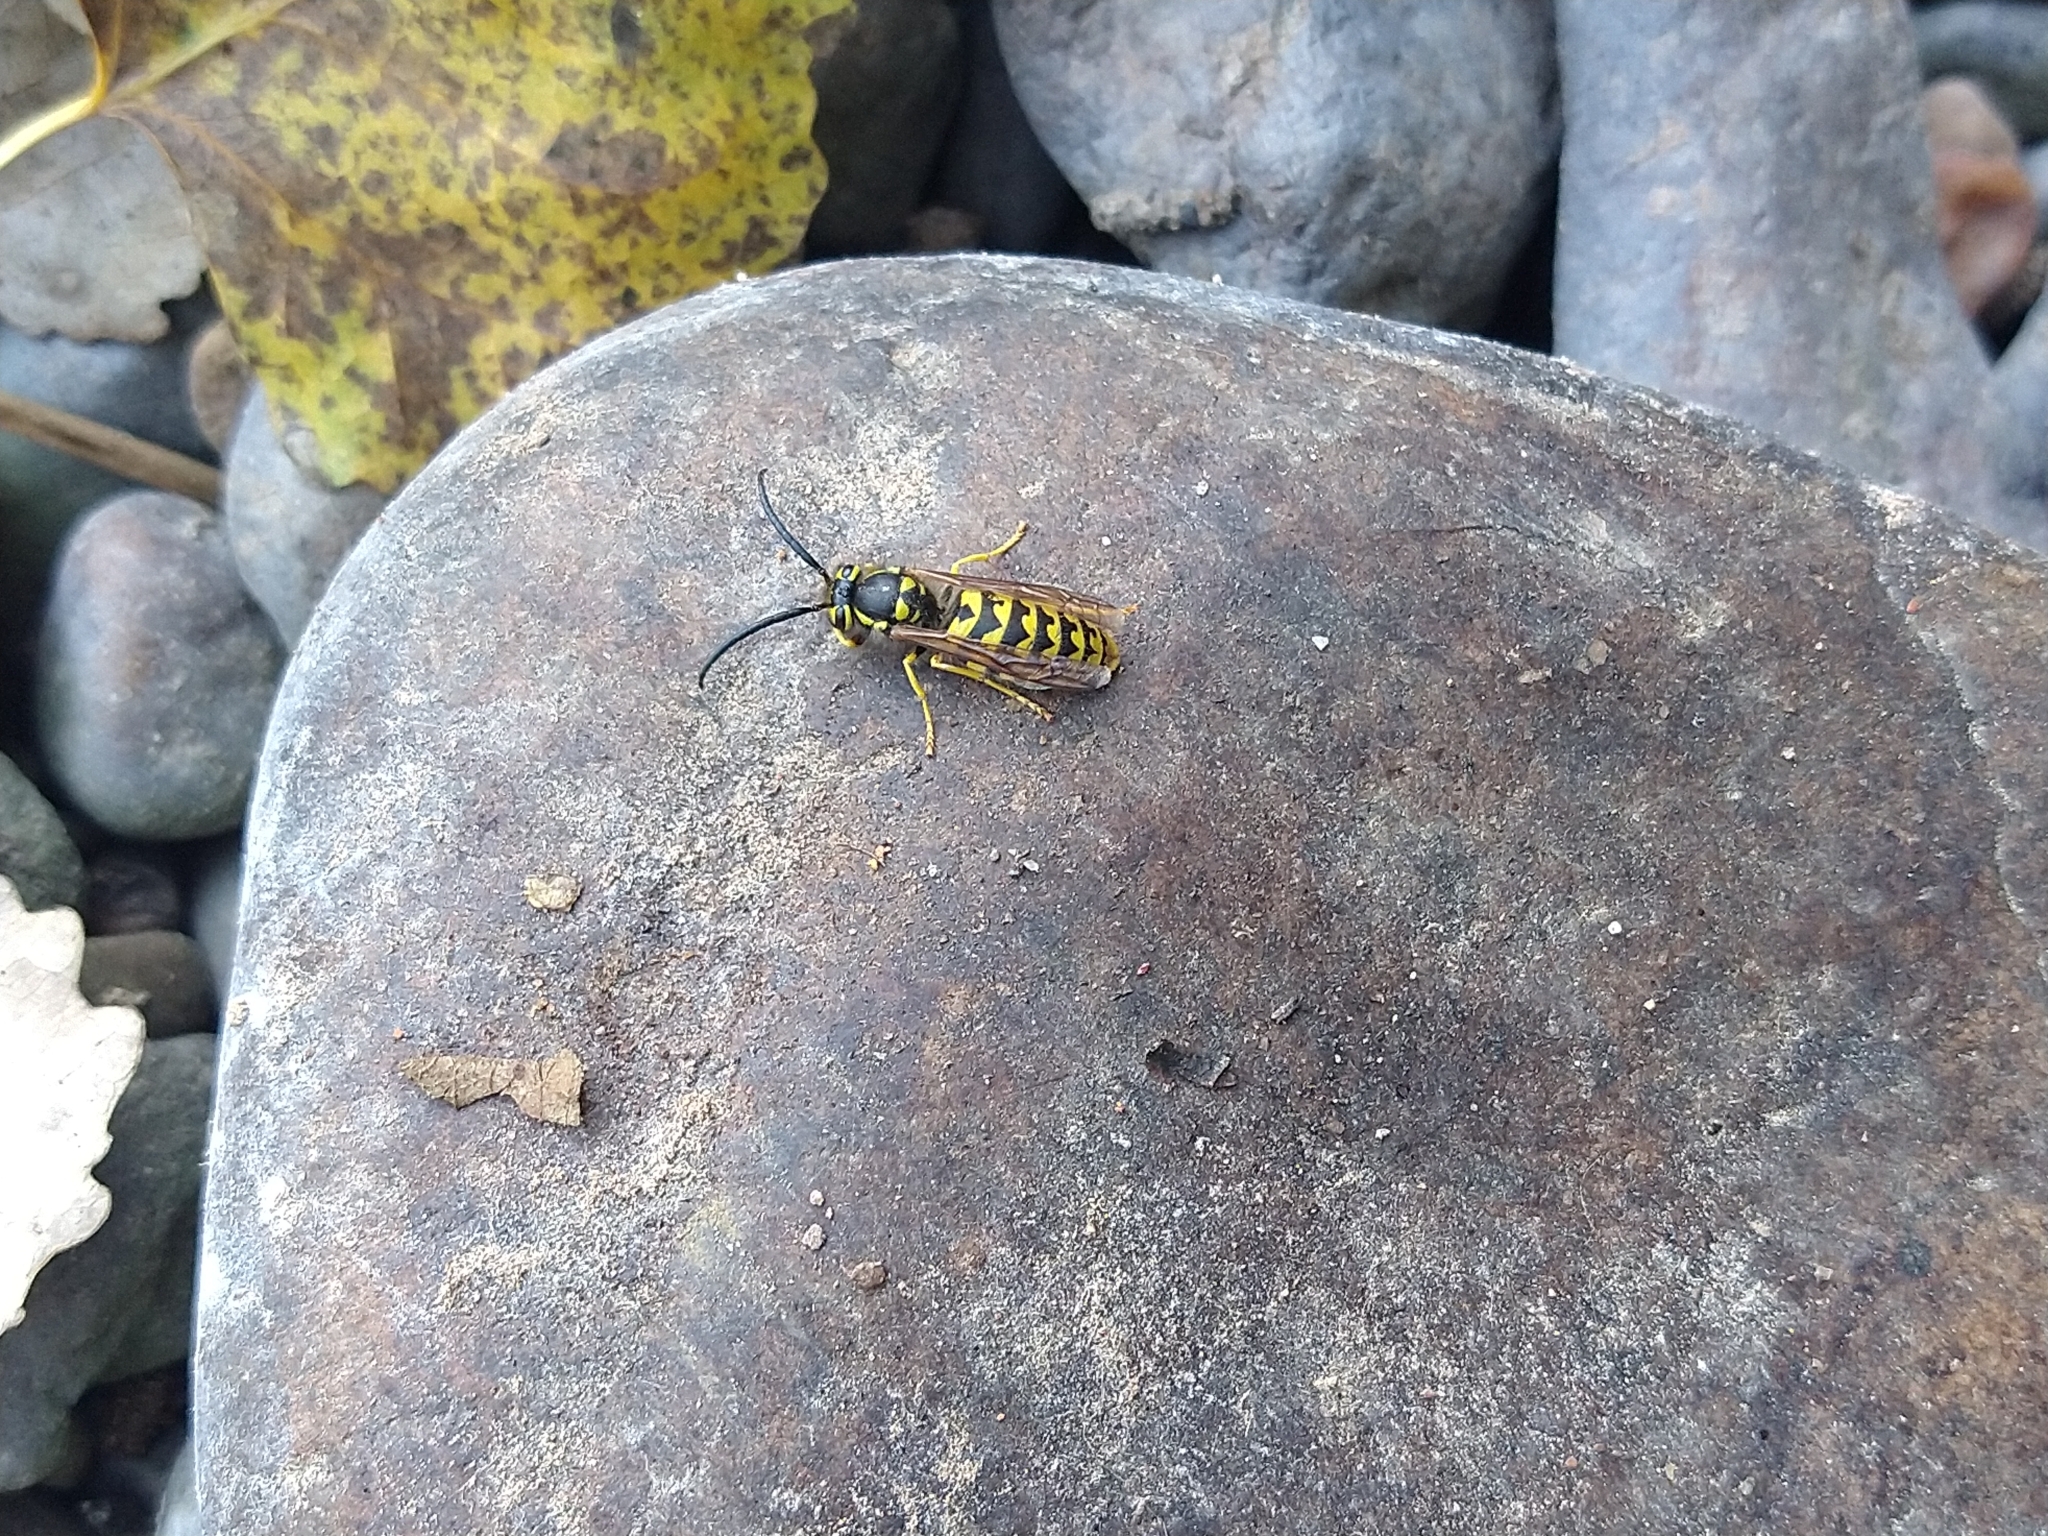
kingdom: Animalia
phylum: Arthropoda
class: Insecta
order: Hymenoptera
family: Vespidae
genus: Vespula
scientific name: Vespula pensylvanica
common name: Western yellowjacket
